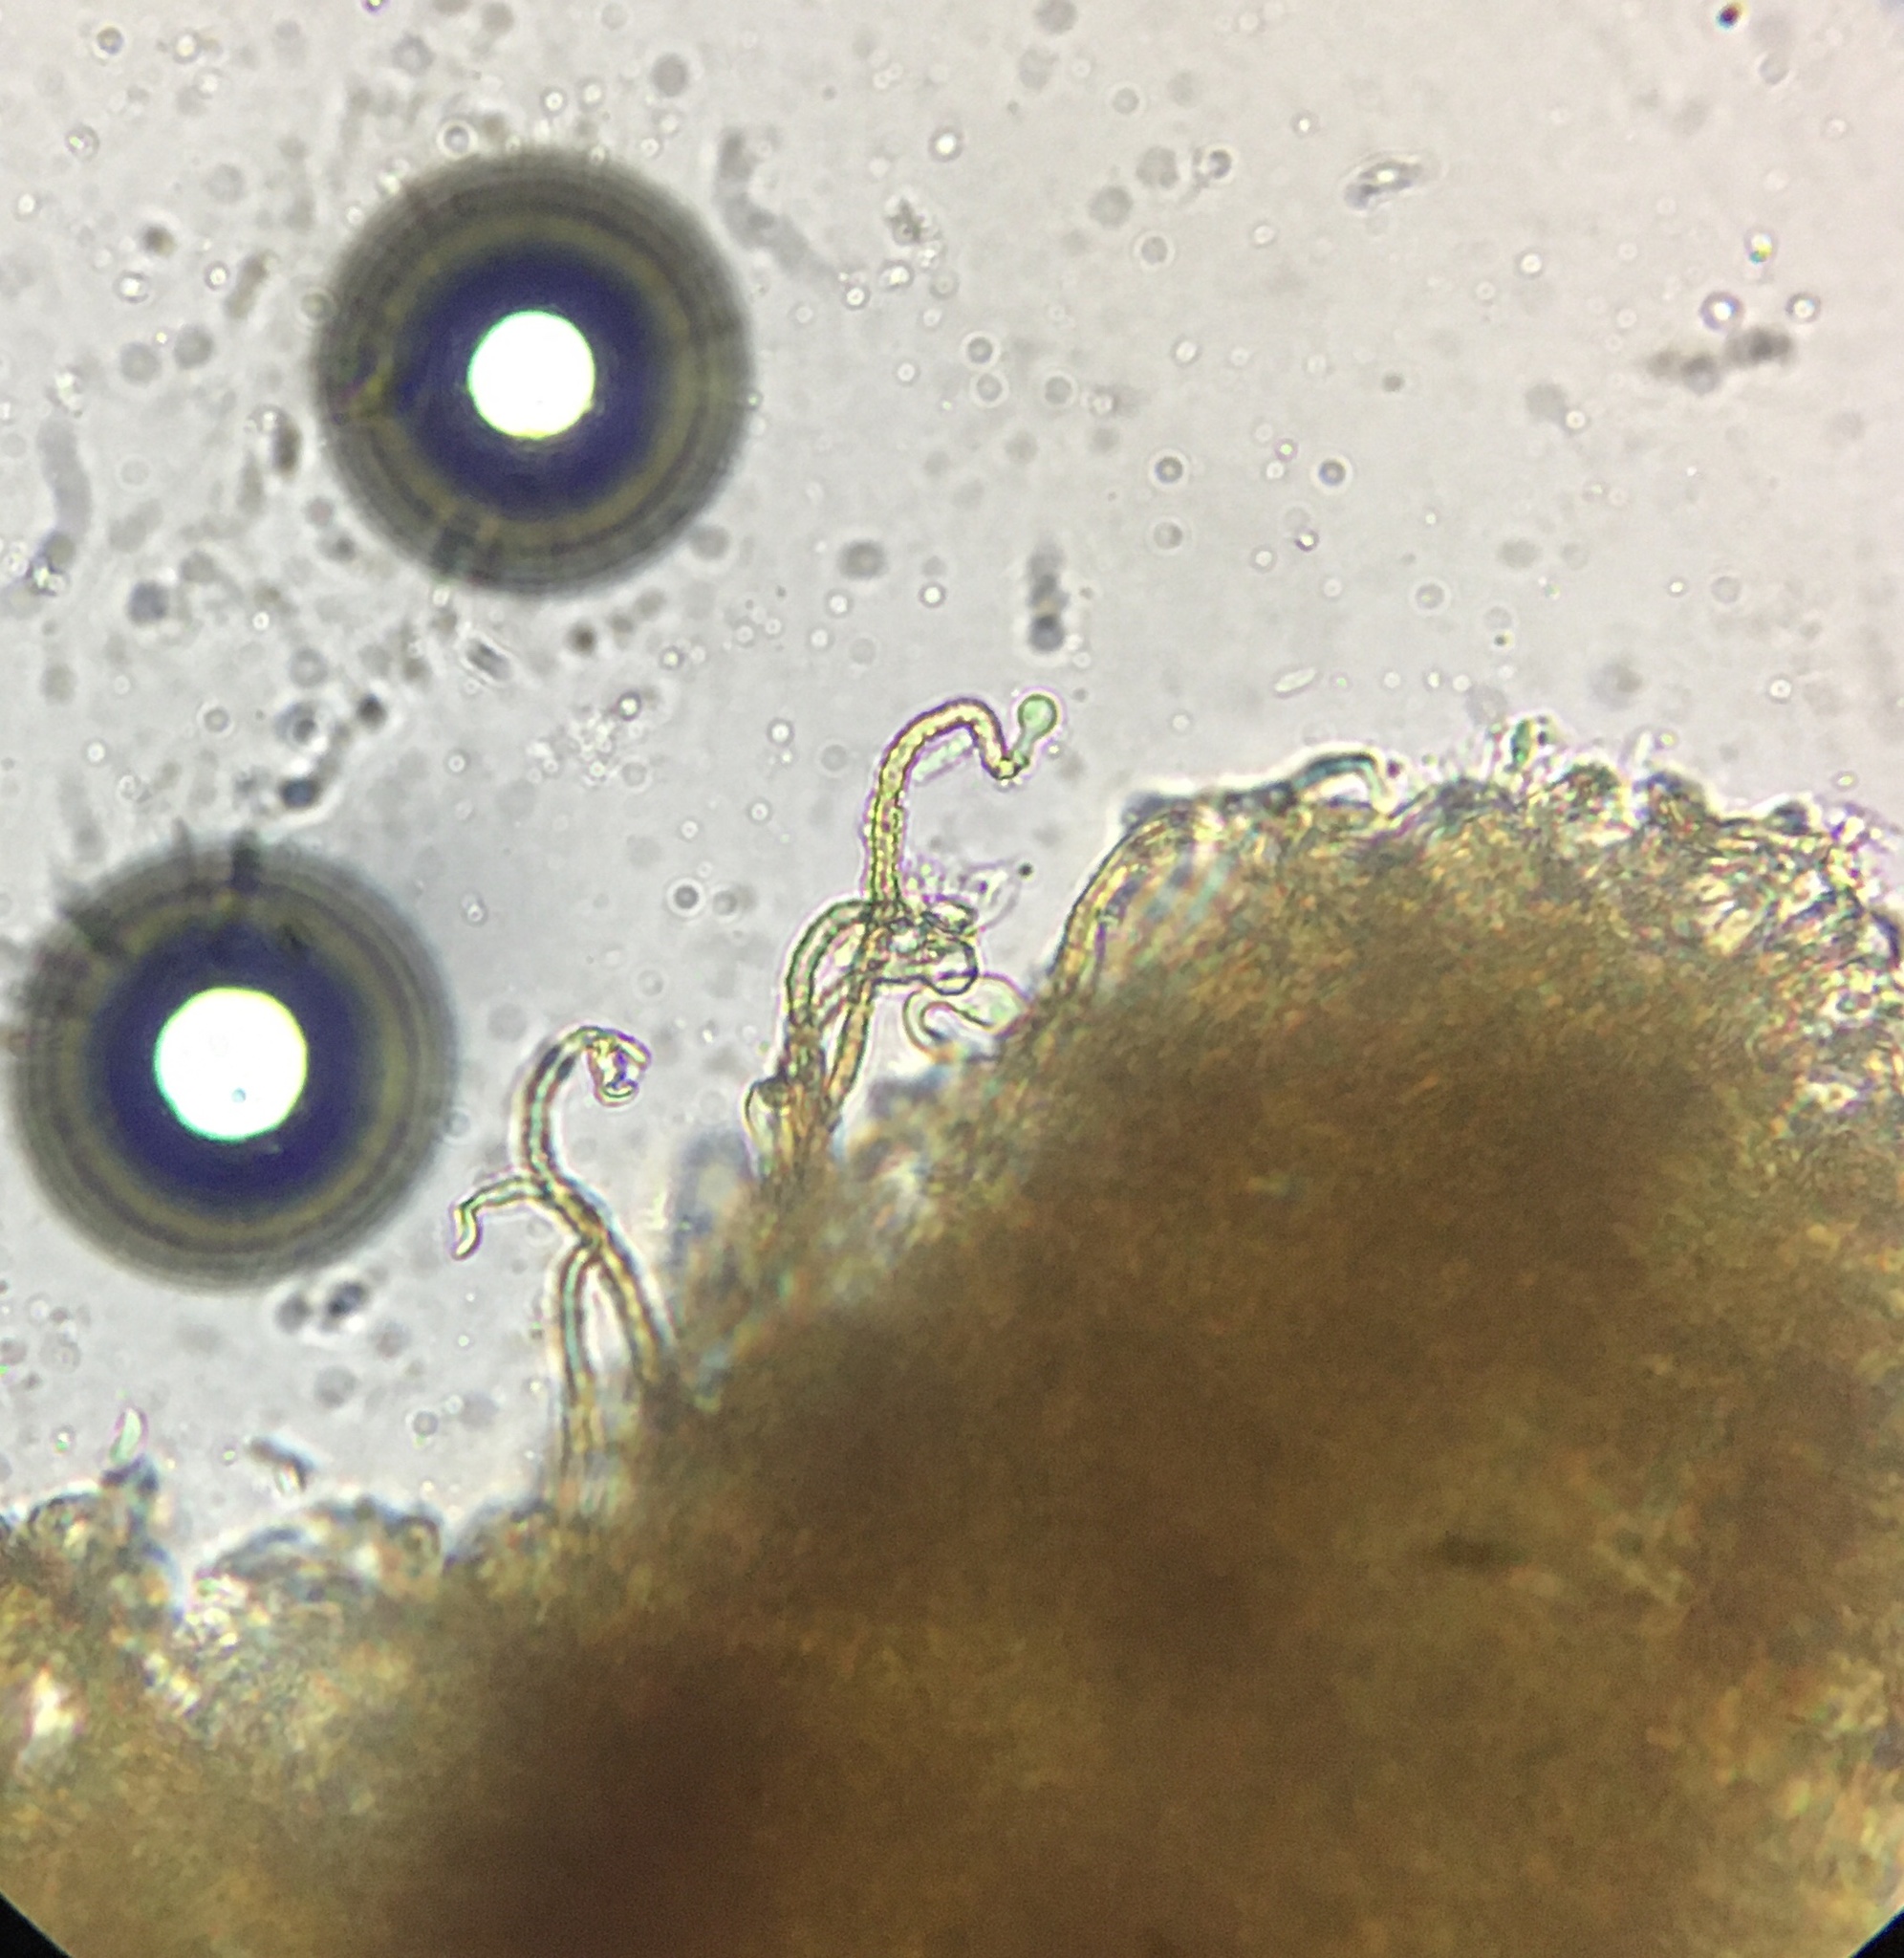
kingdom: Fungi
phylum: Basidiomycota
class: Agaricomycetes
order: Agaricales
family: Niaceae
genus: Merismodes
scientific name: Merismodes anomala
